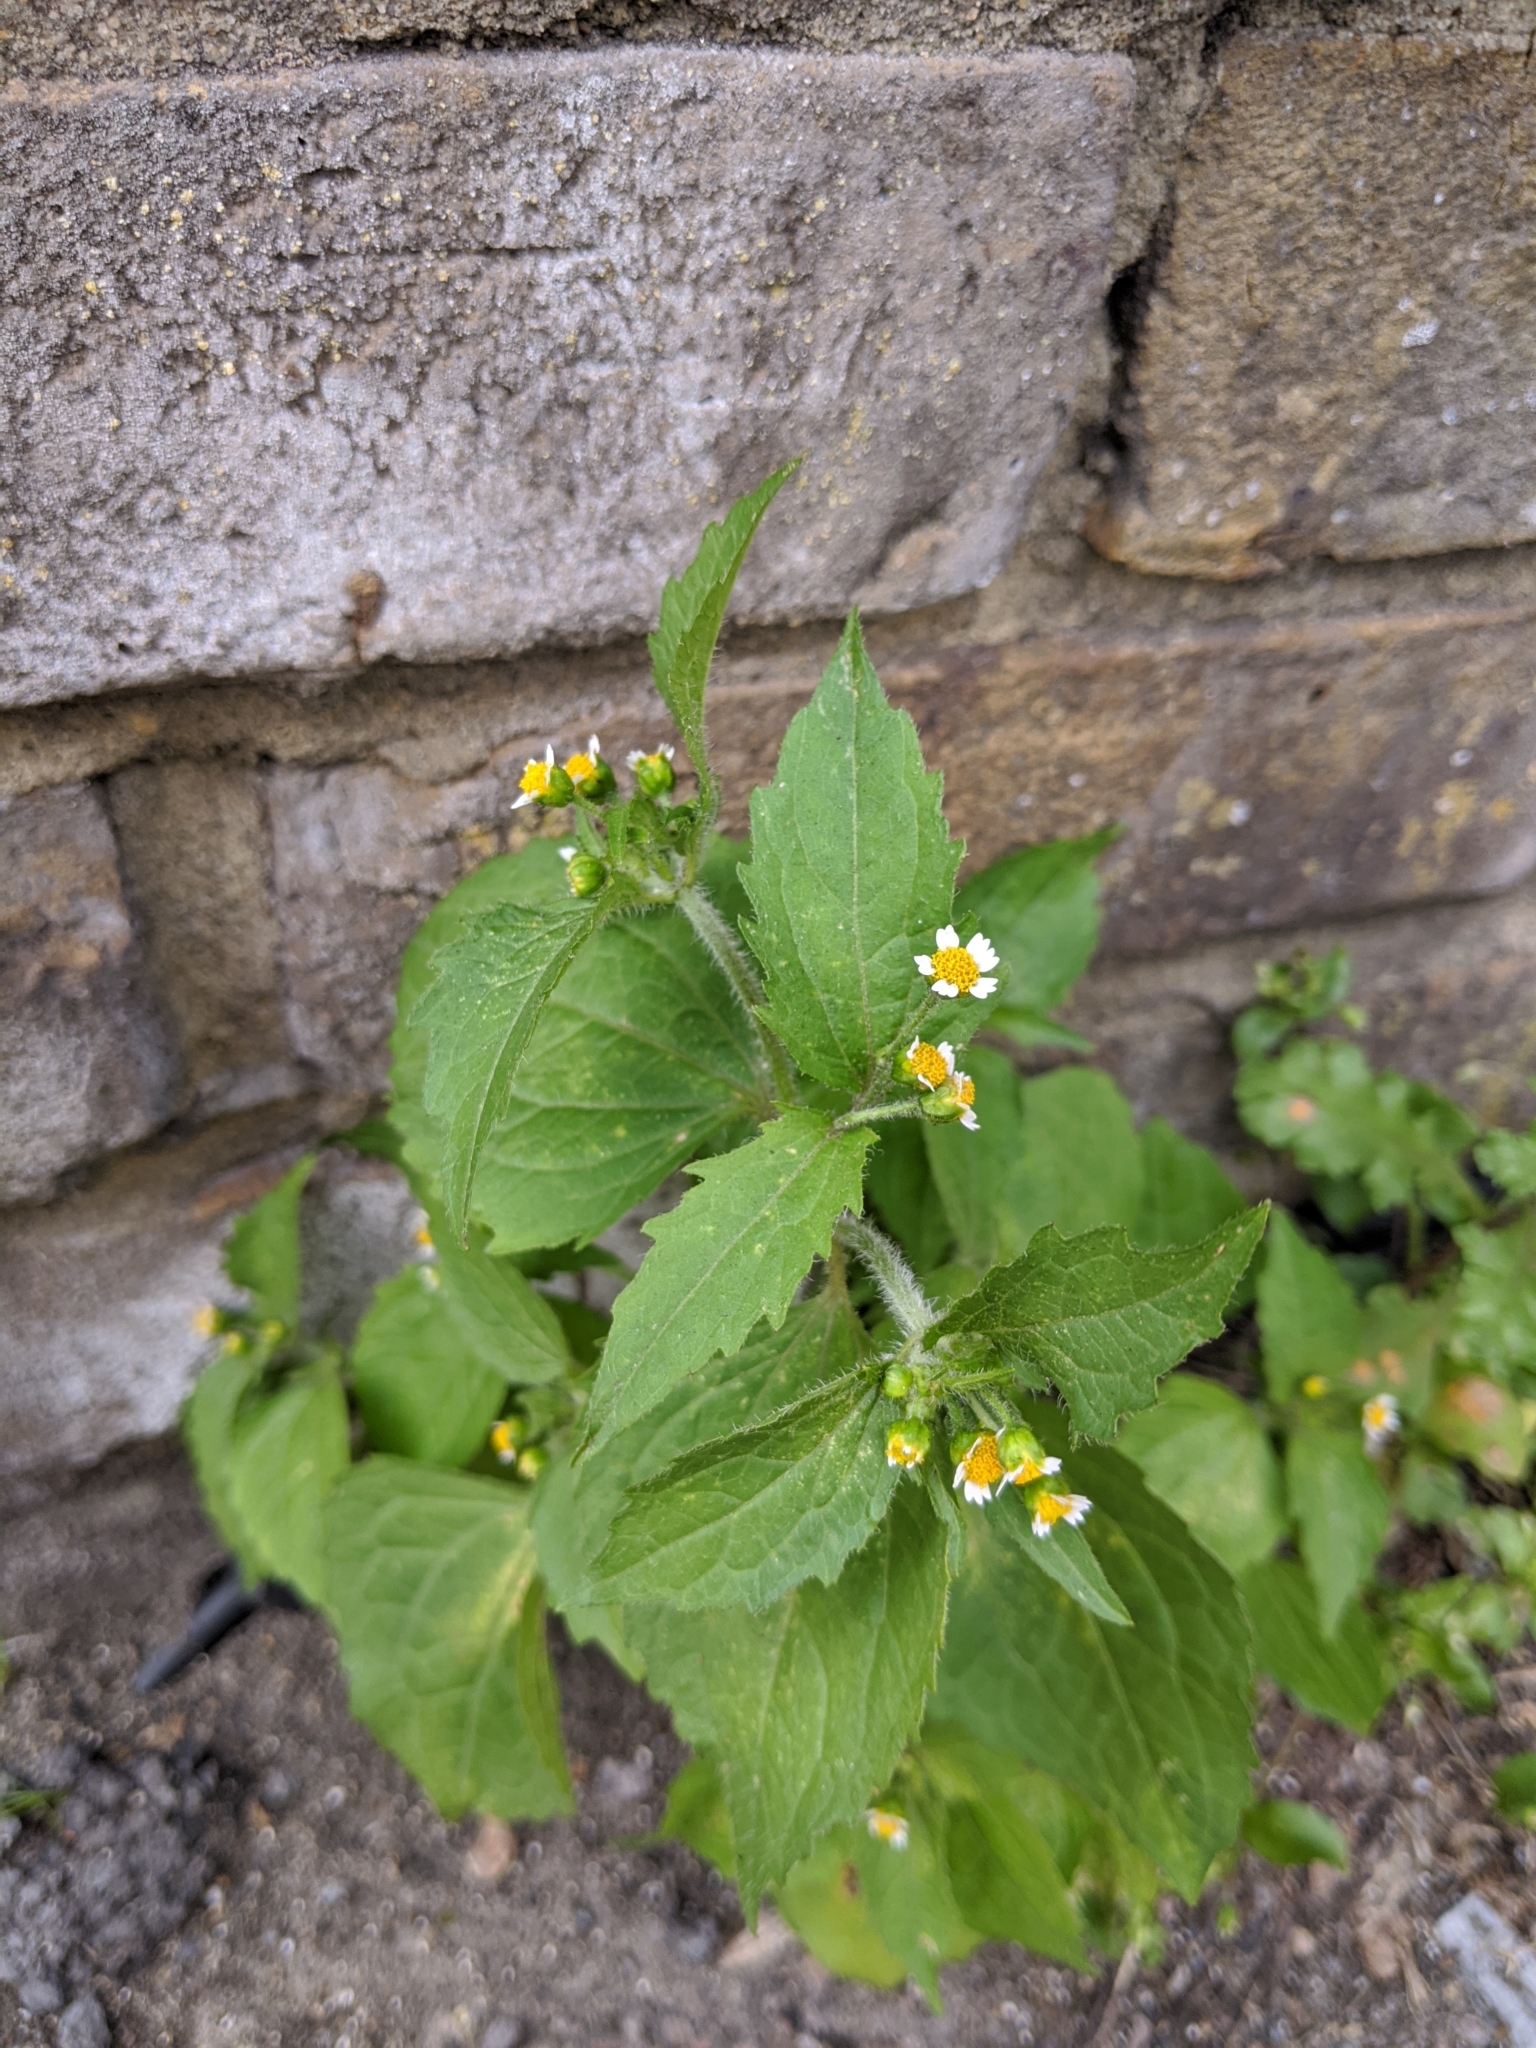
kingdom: Plantae
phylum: Tracheophyta
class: Magnoliopsida
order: Asterales
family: Asteraceae
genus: Galinsoga
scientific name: Galinsoga quadriradiata
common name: Shaggy soldier
